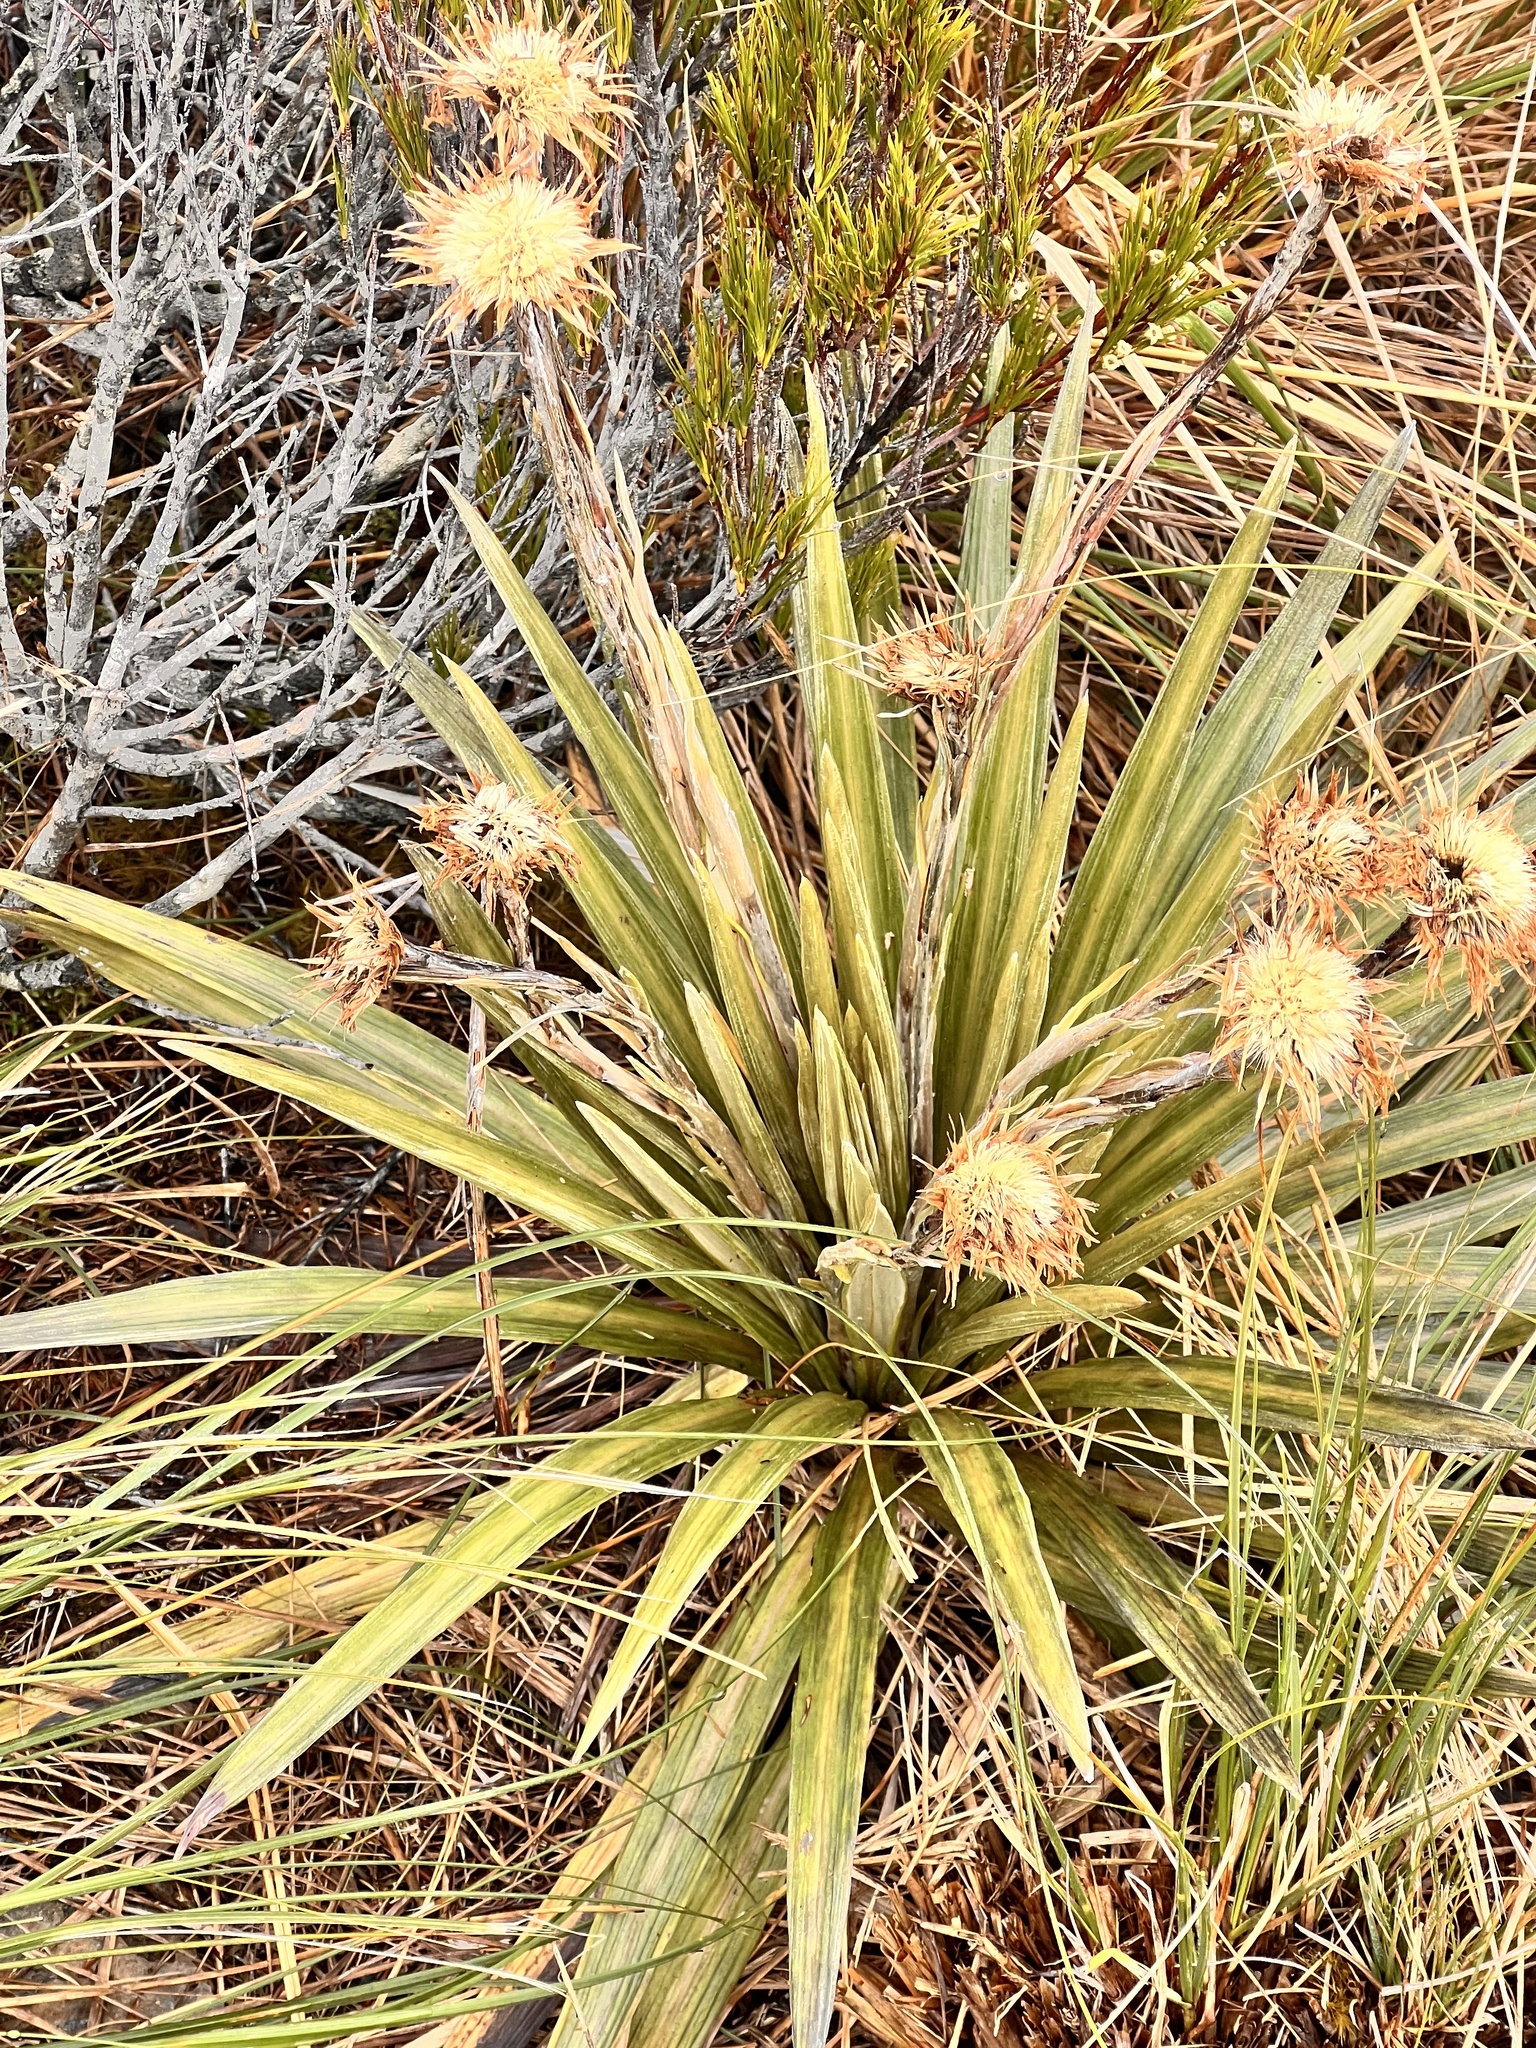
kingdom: Plantae
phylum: Tracheophyta
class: Magnoliopsida
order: Asterales
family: Asteraceae
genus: Celmisia
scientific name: Celmisia armstrongii
